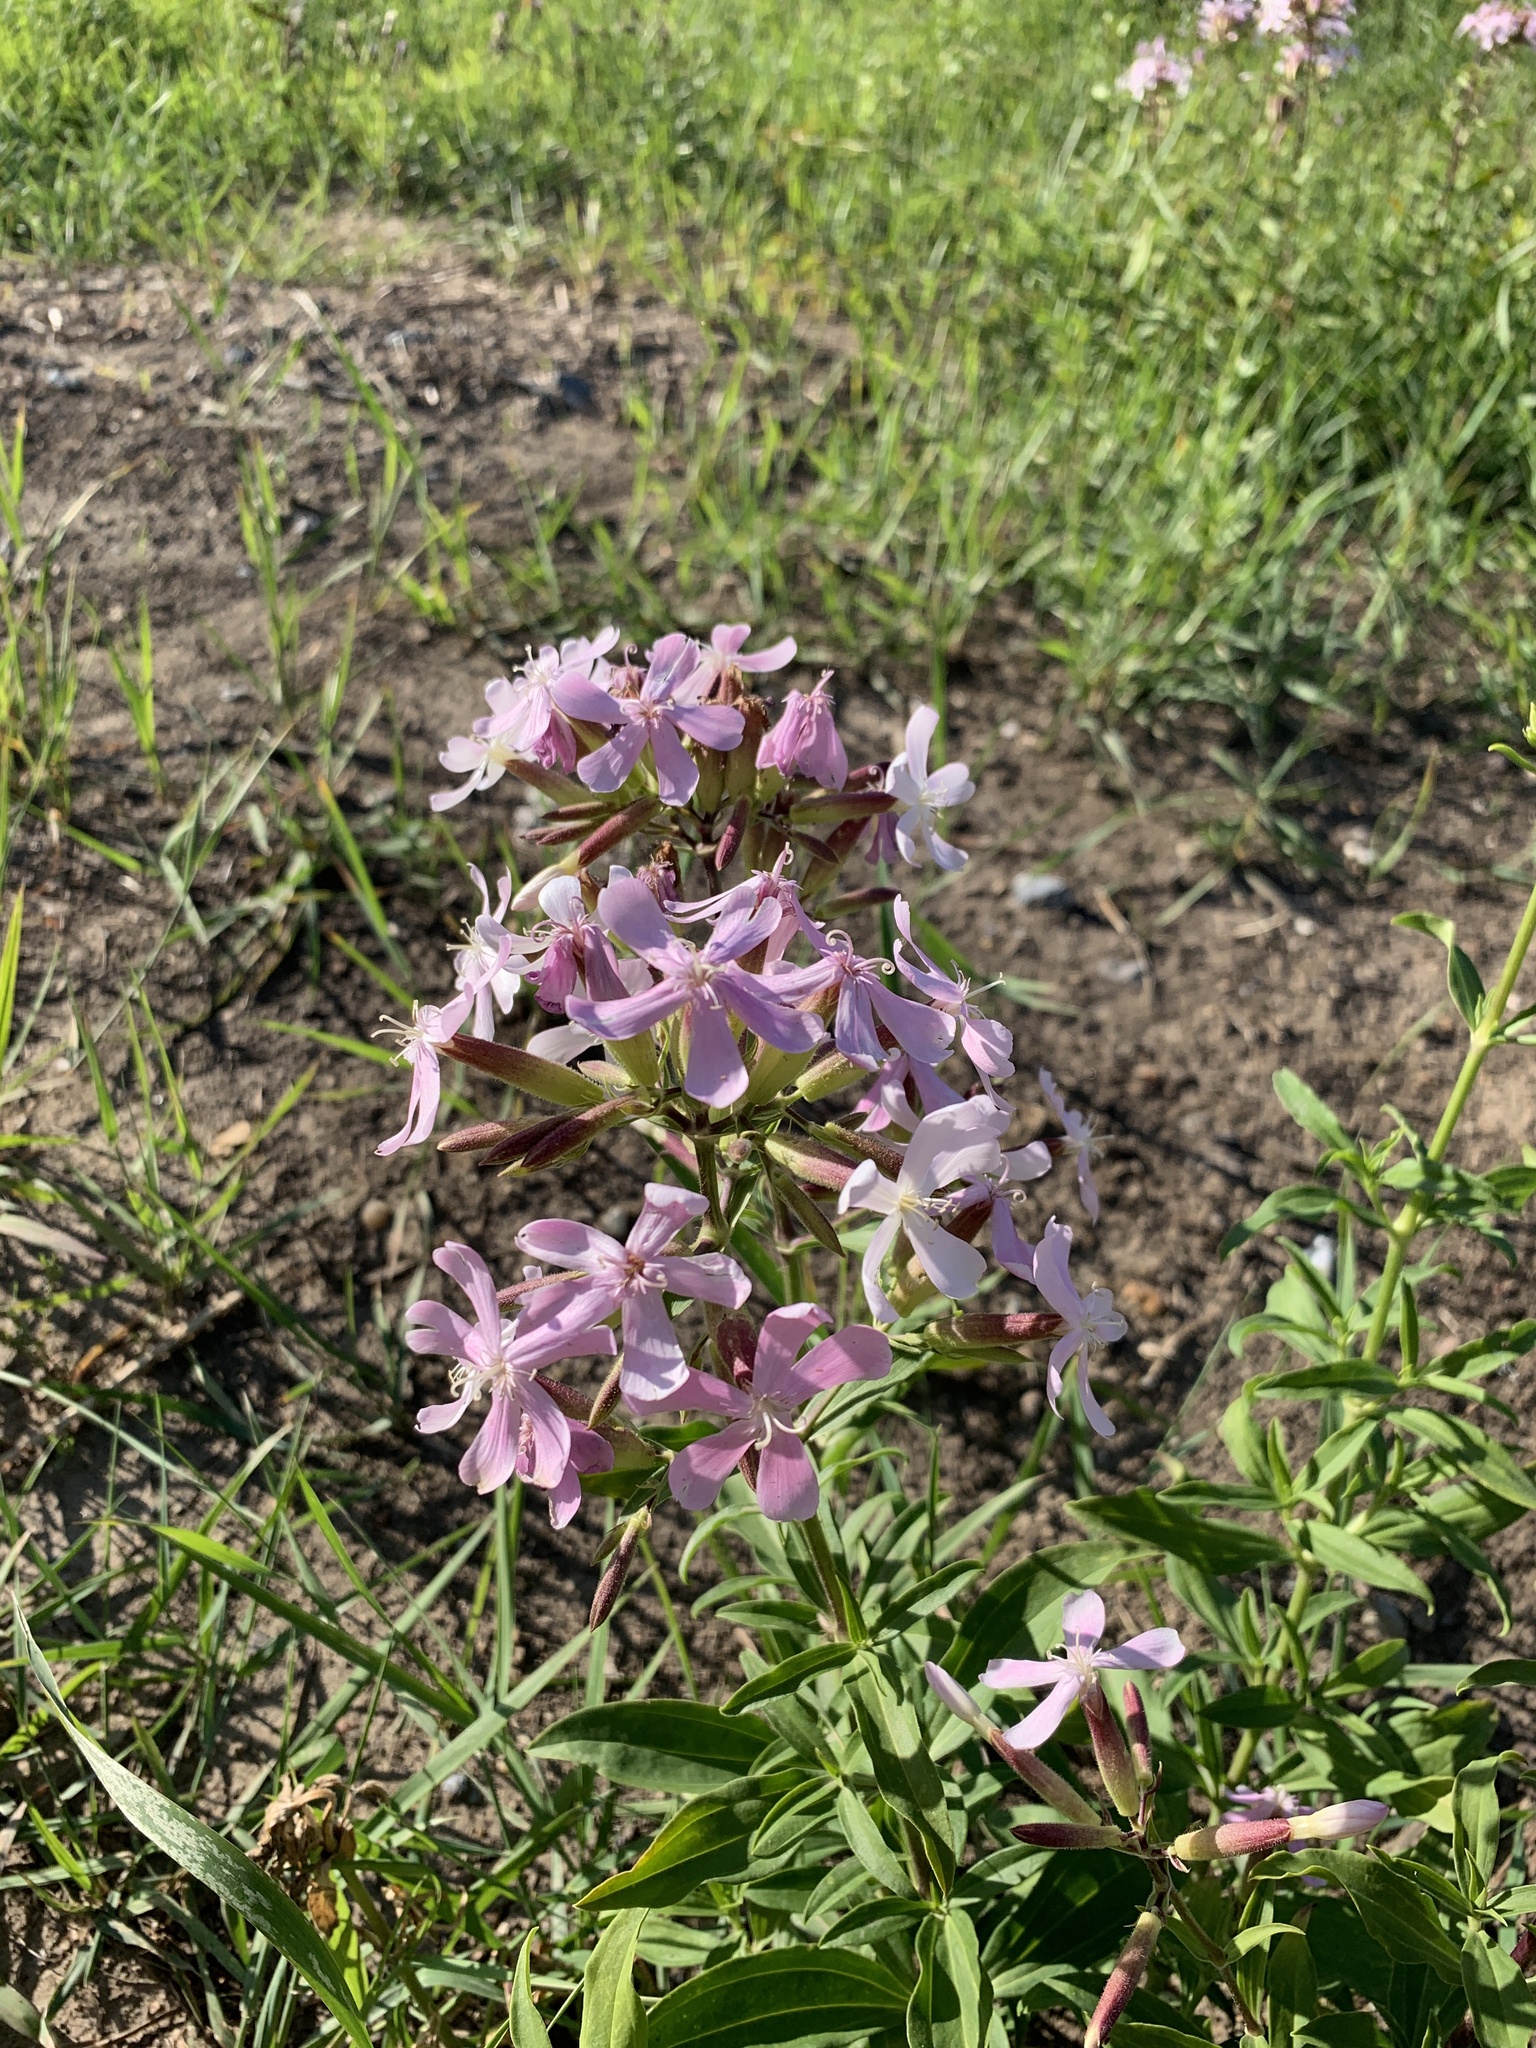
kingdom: Plantae
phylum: Tracheophyta
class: Magnoliopsida
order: Caryophyllales
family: Caryophyllaceae
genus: Saponaria
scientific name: Saponaria officinalis
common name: Soapwort
